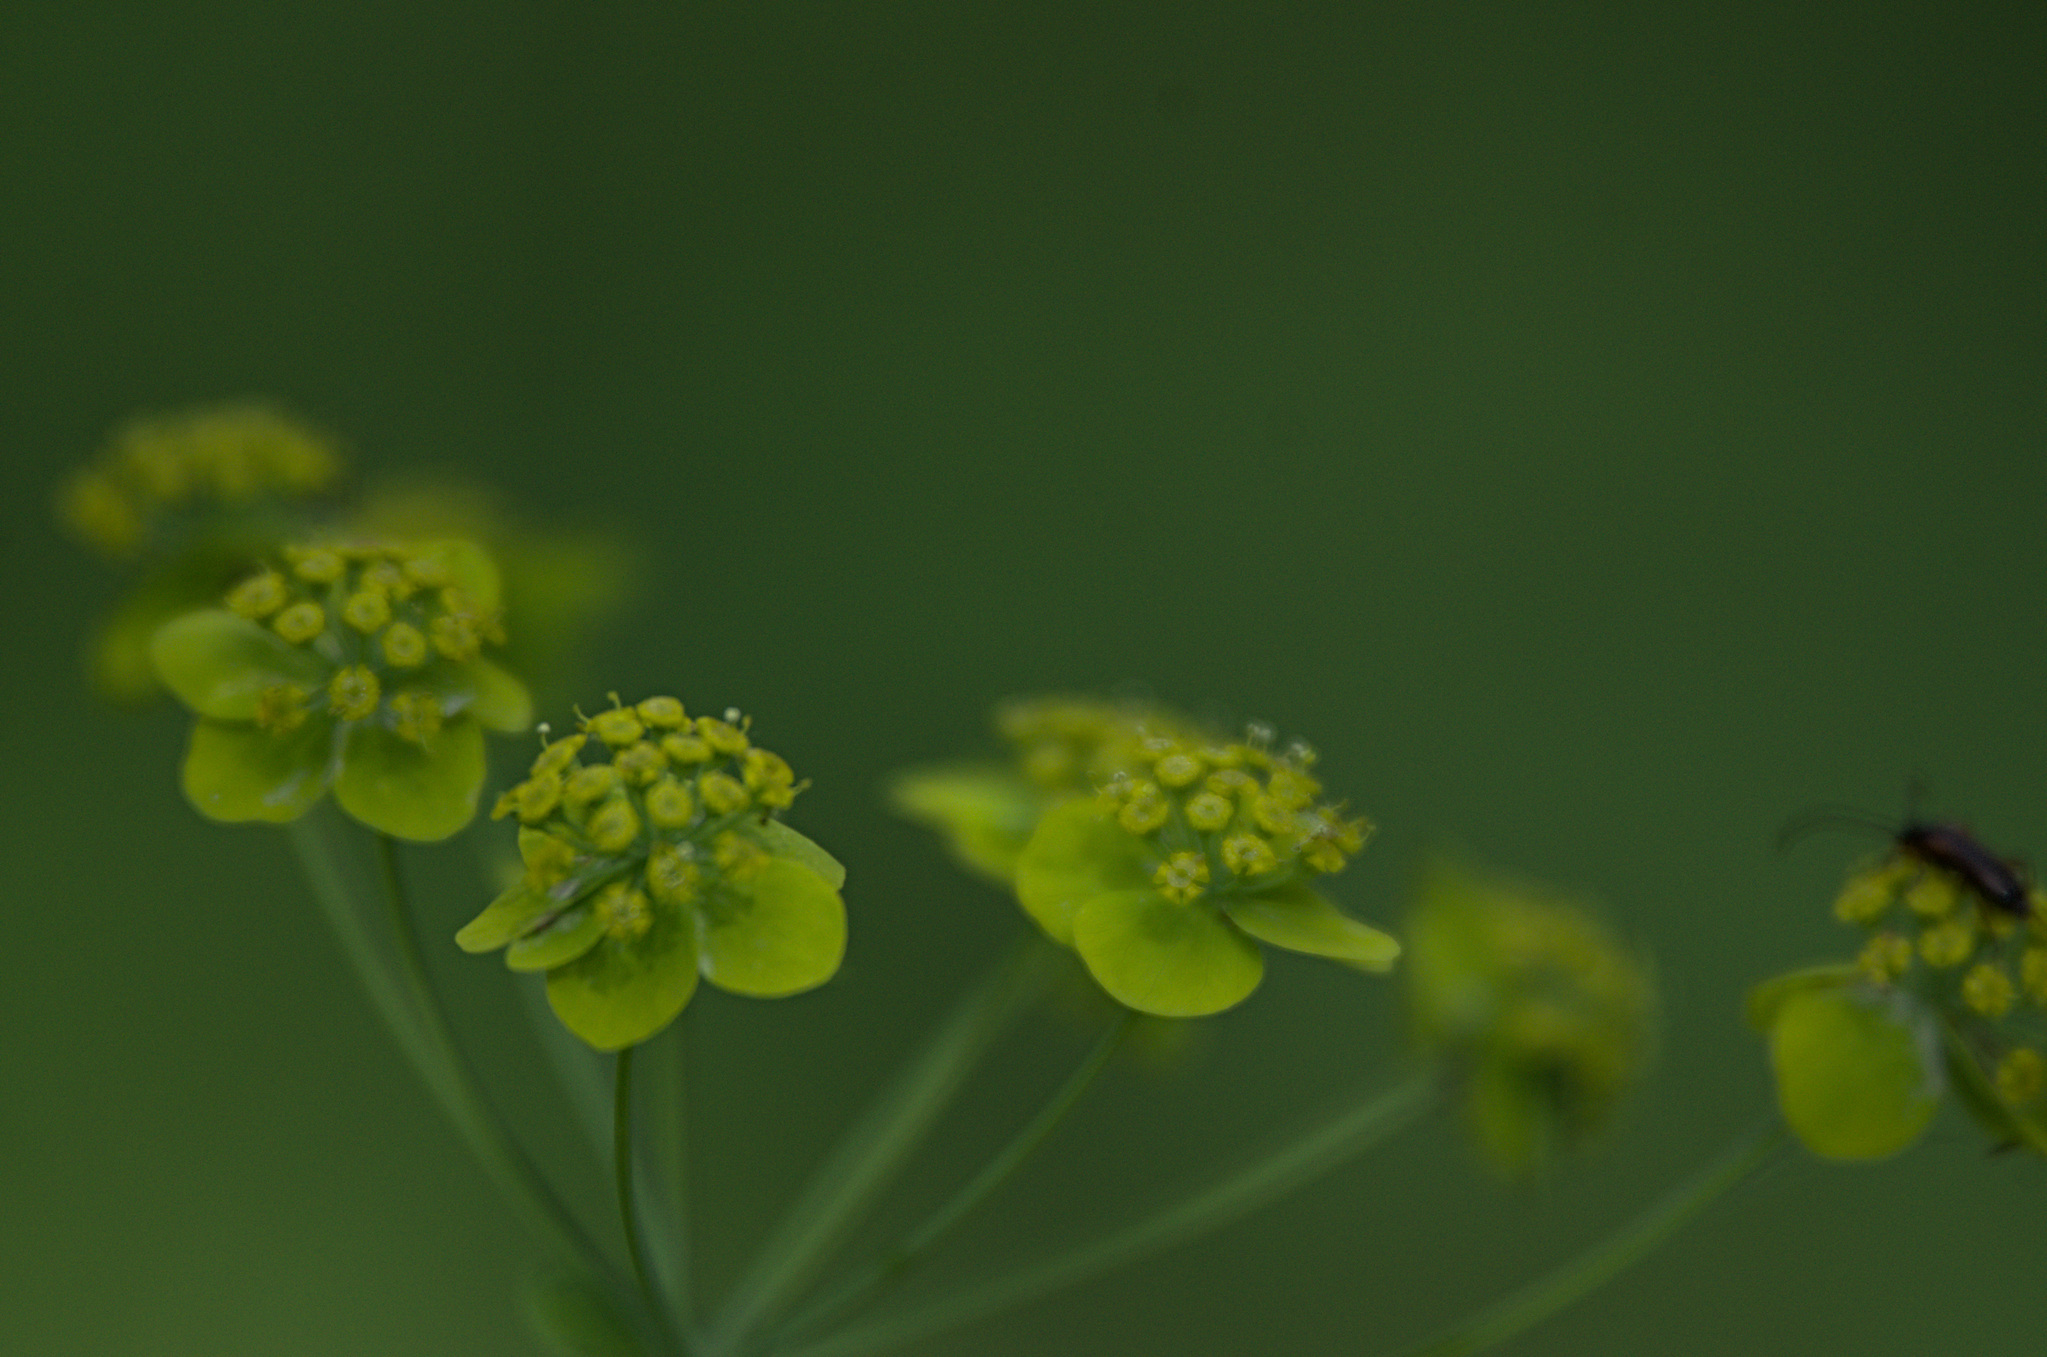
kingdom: Plantae
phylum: Tracheophyta
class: Magnoliopsida
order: Apiales
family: Apiaceae
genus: Bupleurum
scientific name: Bupleurum aureum
